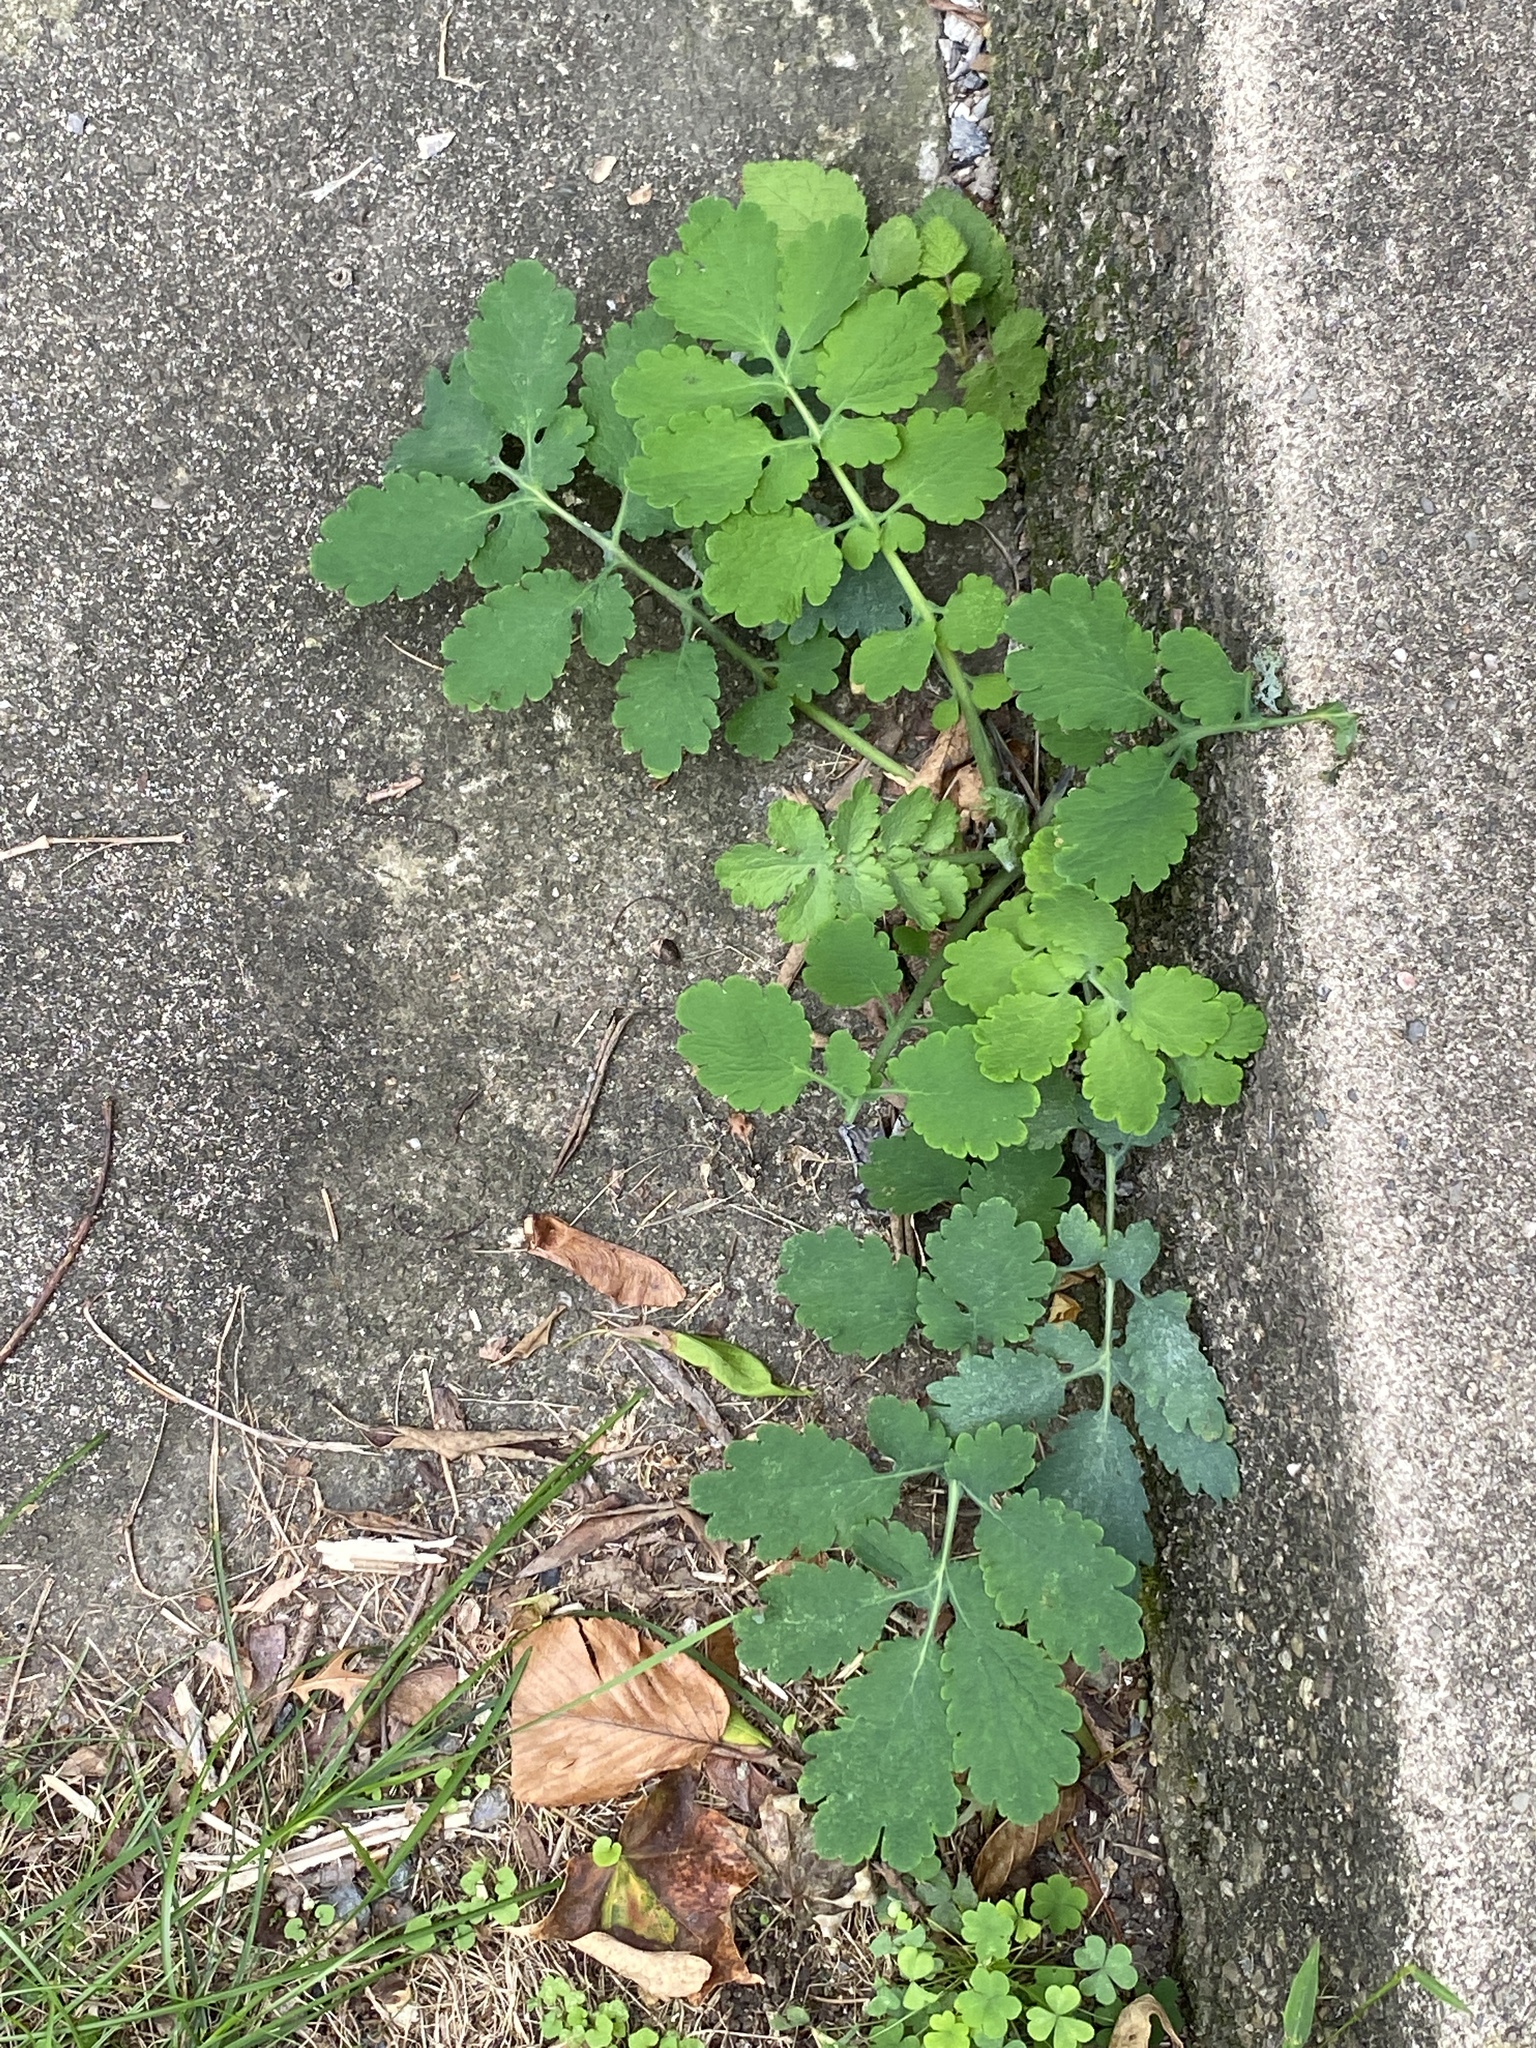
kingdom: Plantae
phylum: Tracheophyta
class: Magnoliopsida
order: Ranunculales
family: Papaveraceae
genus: Chelidonium
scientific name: Chelidonium majus
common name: Greater celandine
